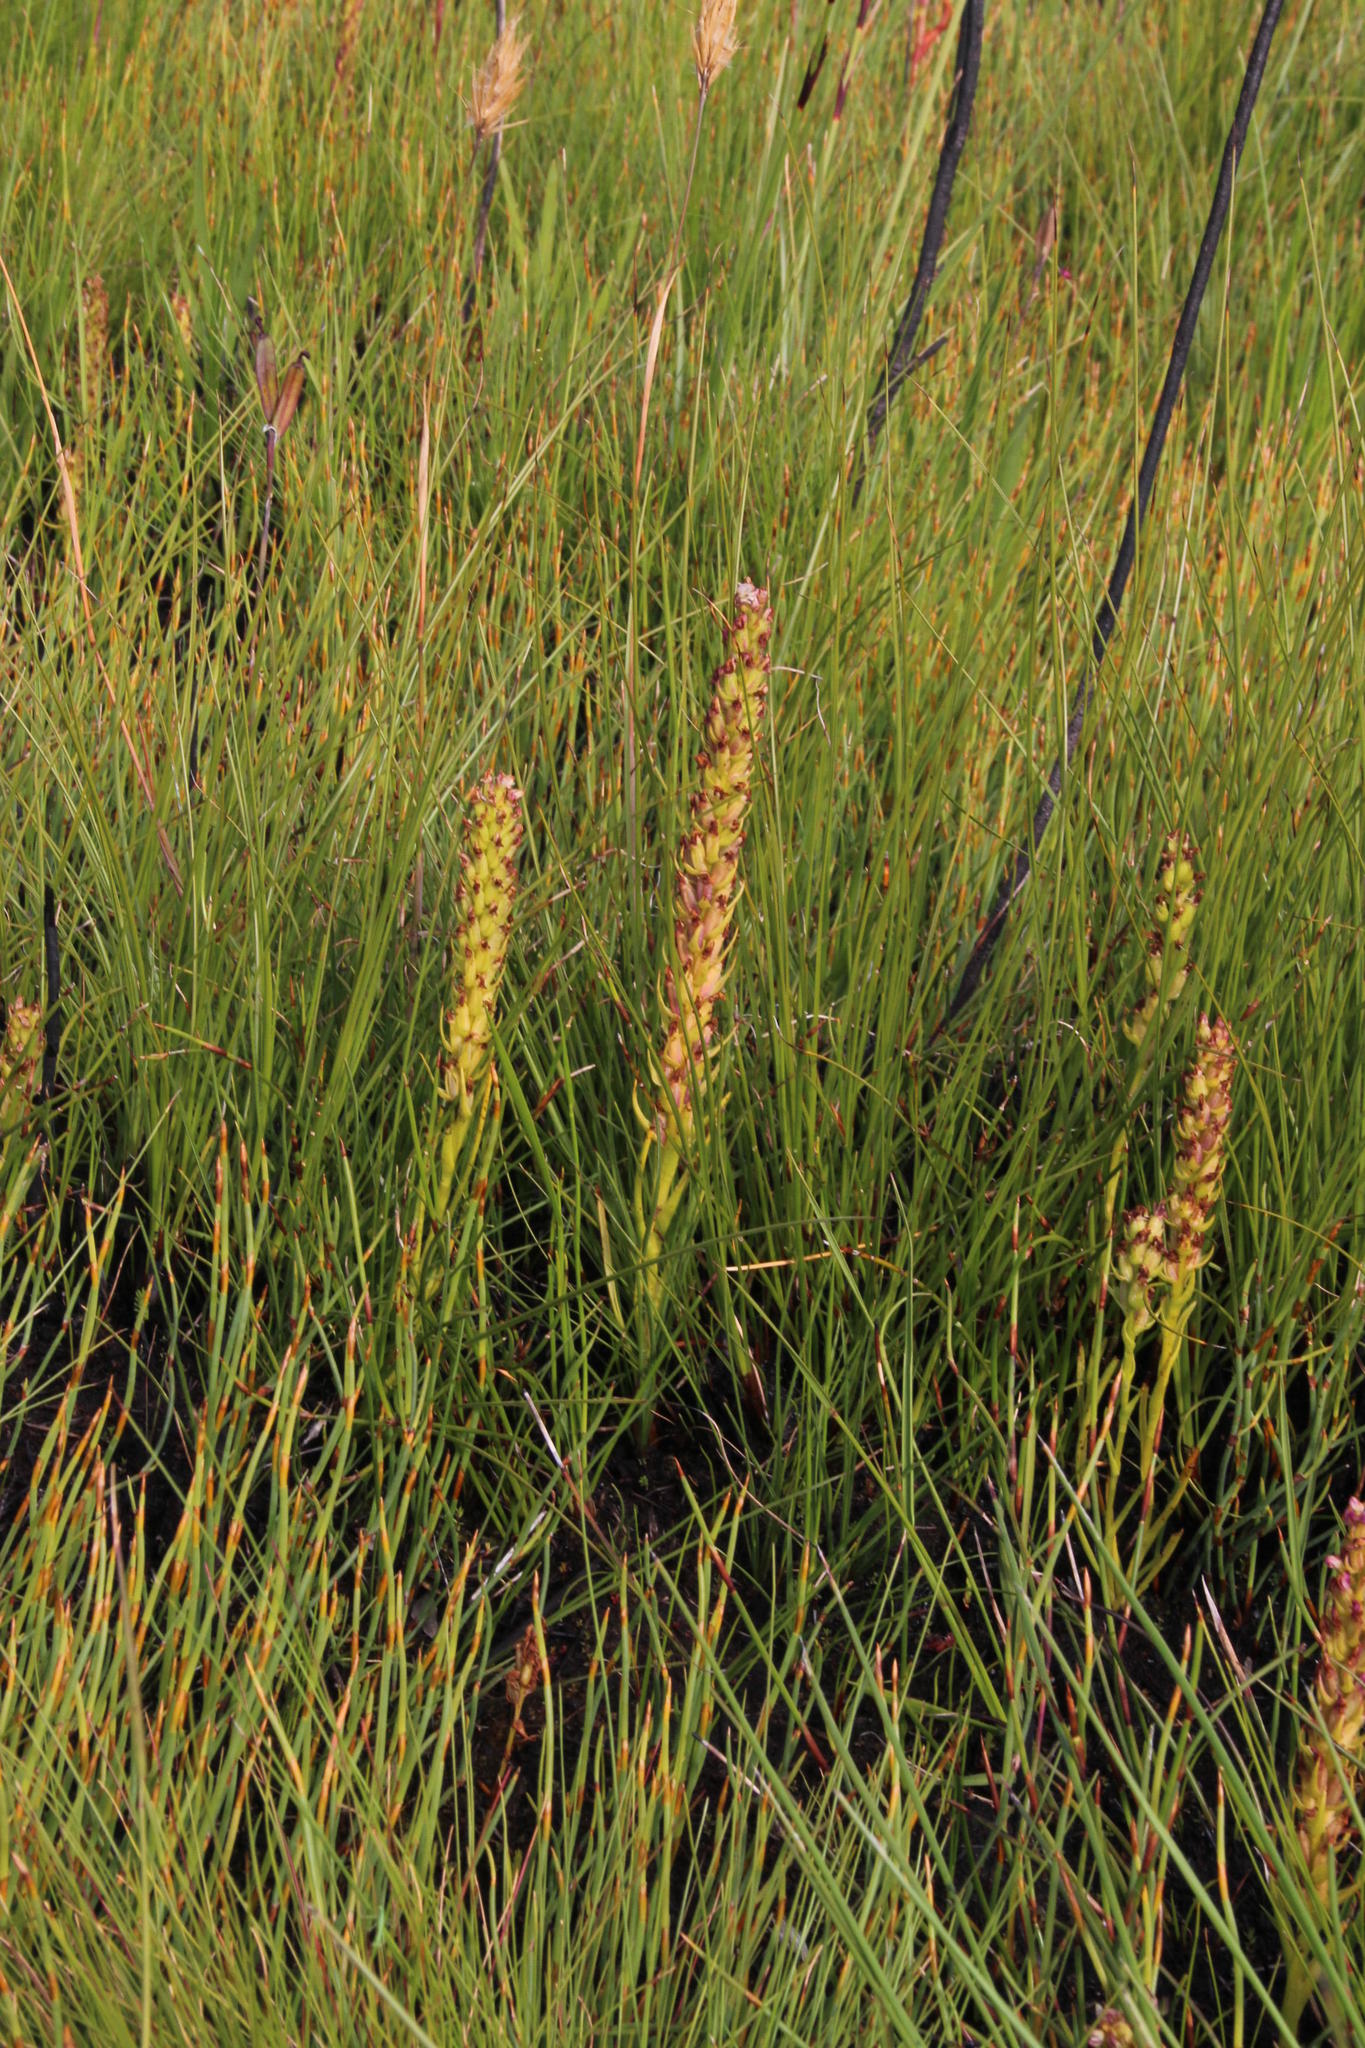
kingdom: Plantae
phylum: Tracheophyta
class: Liliopsida
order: Asparagales
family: Orchidaceae
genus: Disa
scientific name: Disa obtusa
